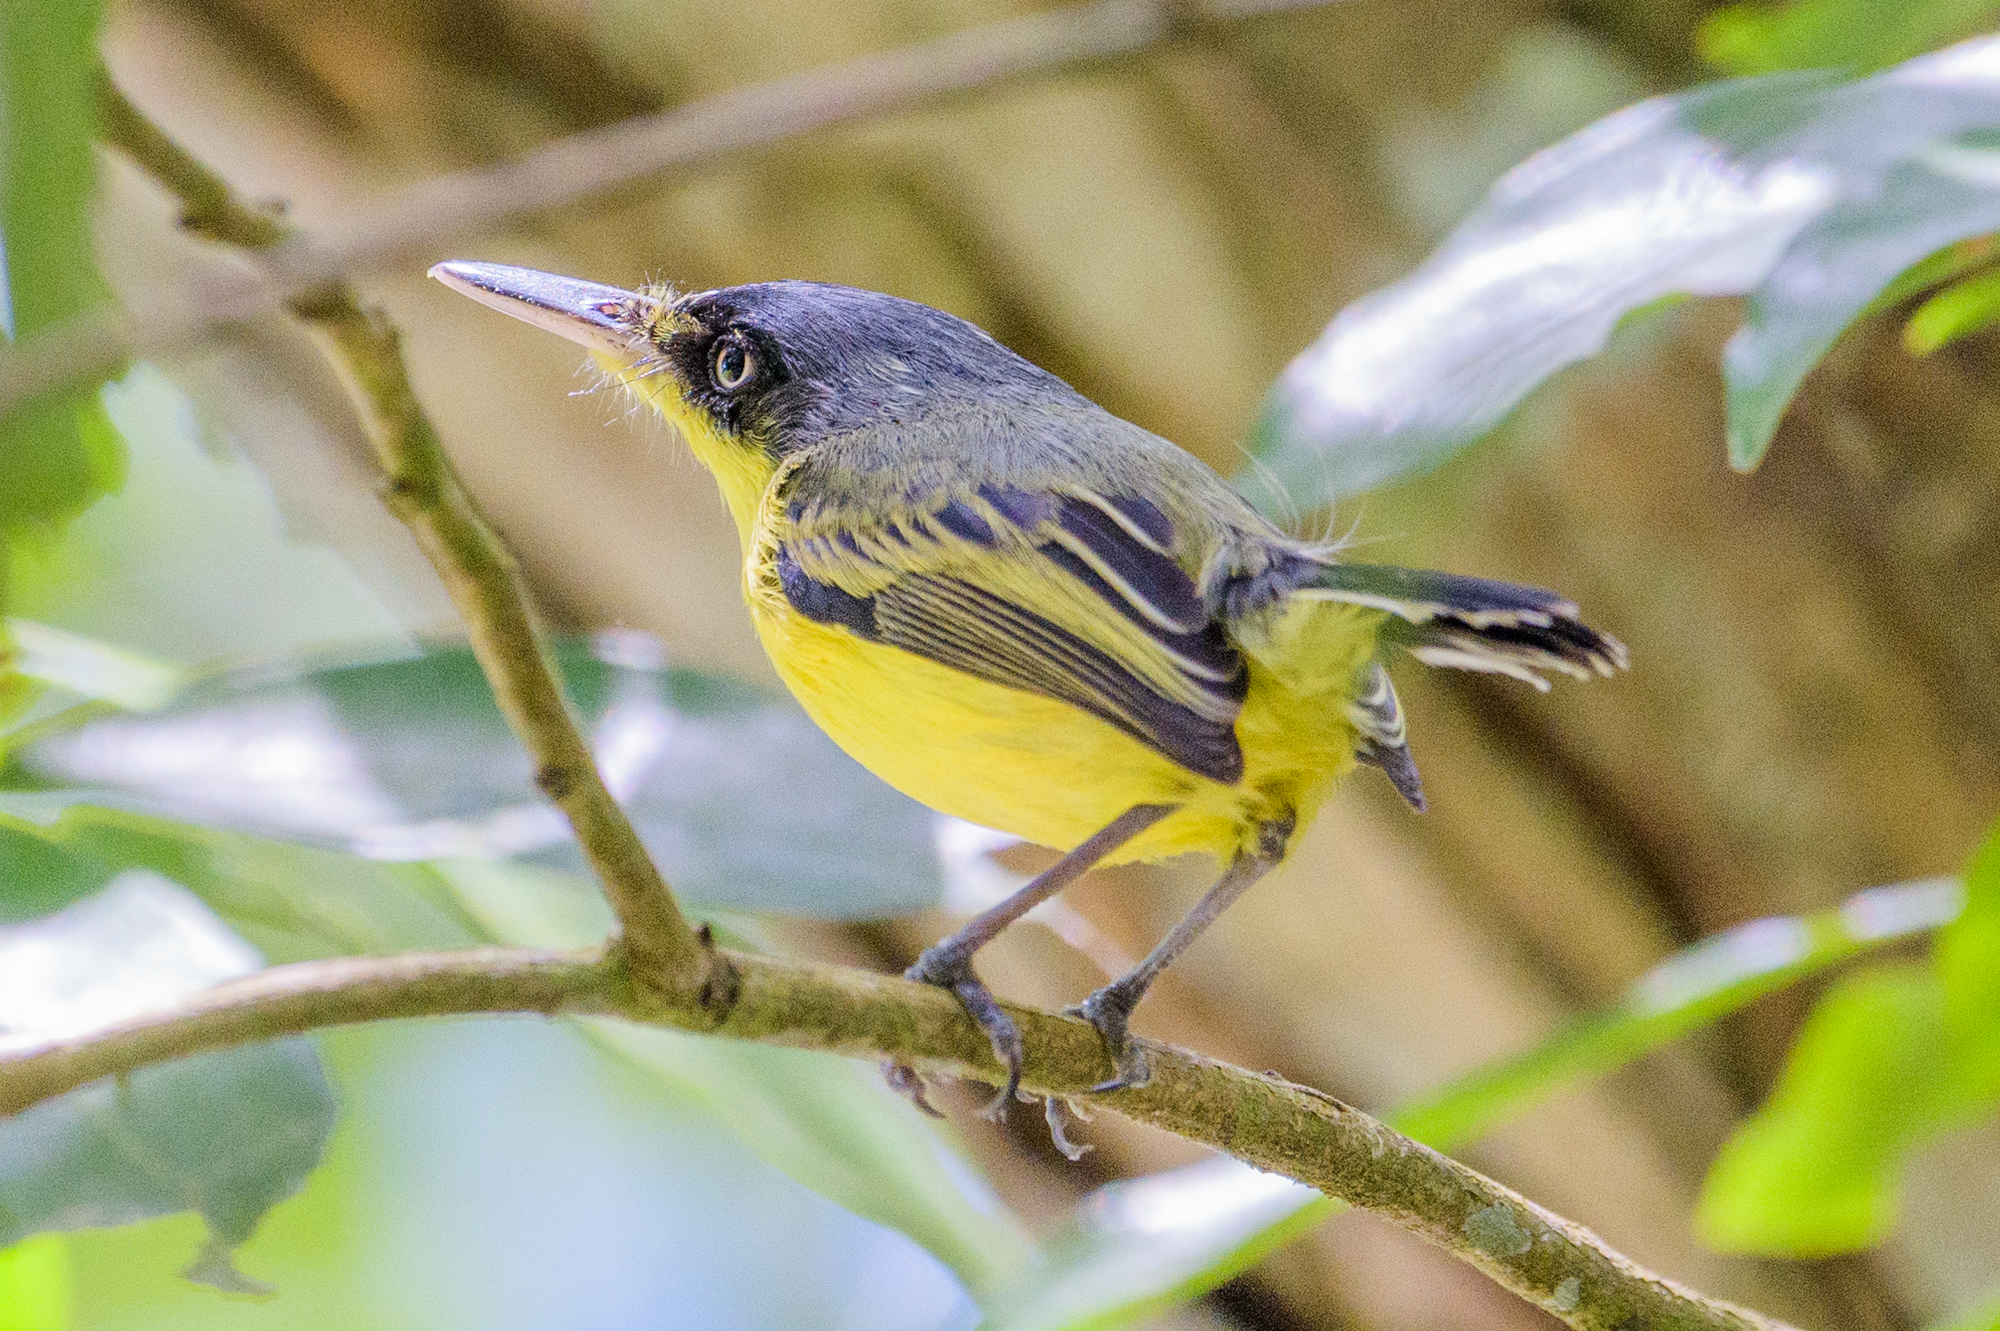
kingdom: Animalia
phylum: Chordata
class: Aves
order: Passeriformes
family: Tyrannidae
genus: Todirostrum
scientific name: Todirostrum cinereum
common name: Common tody-flycatcher
